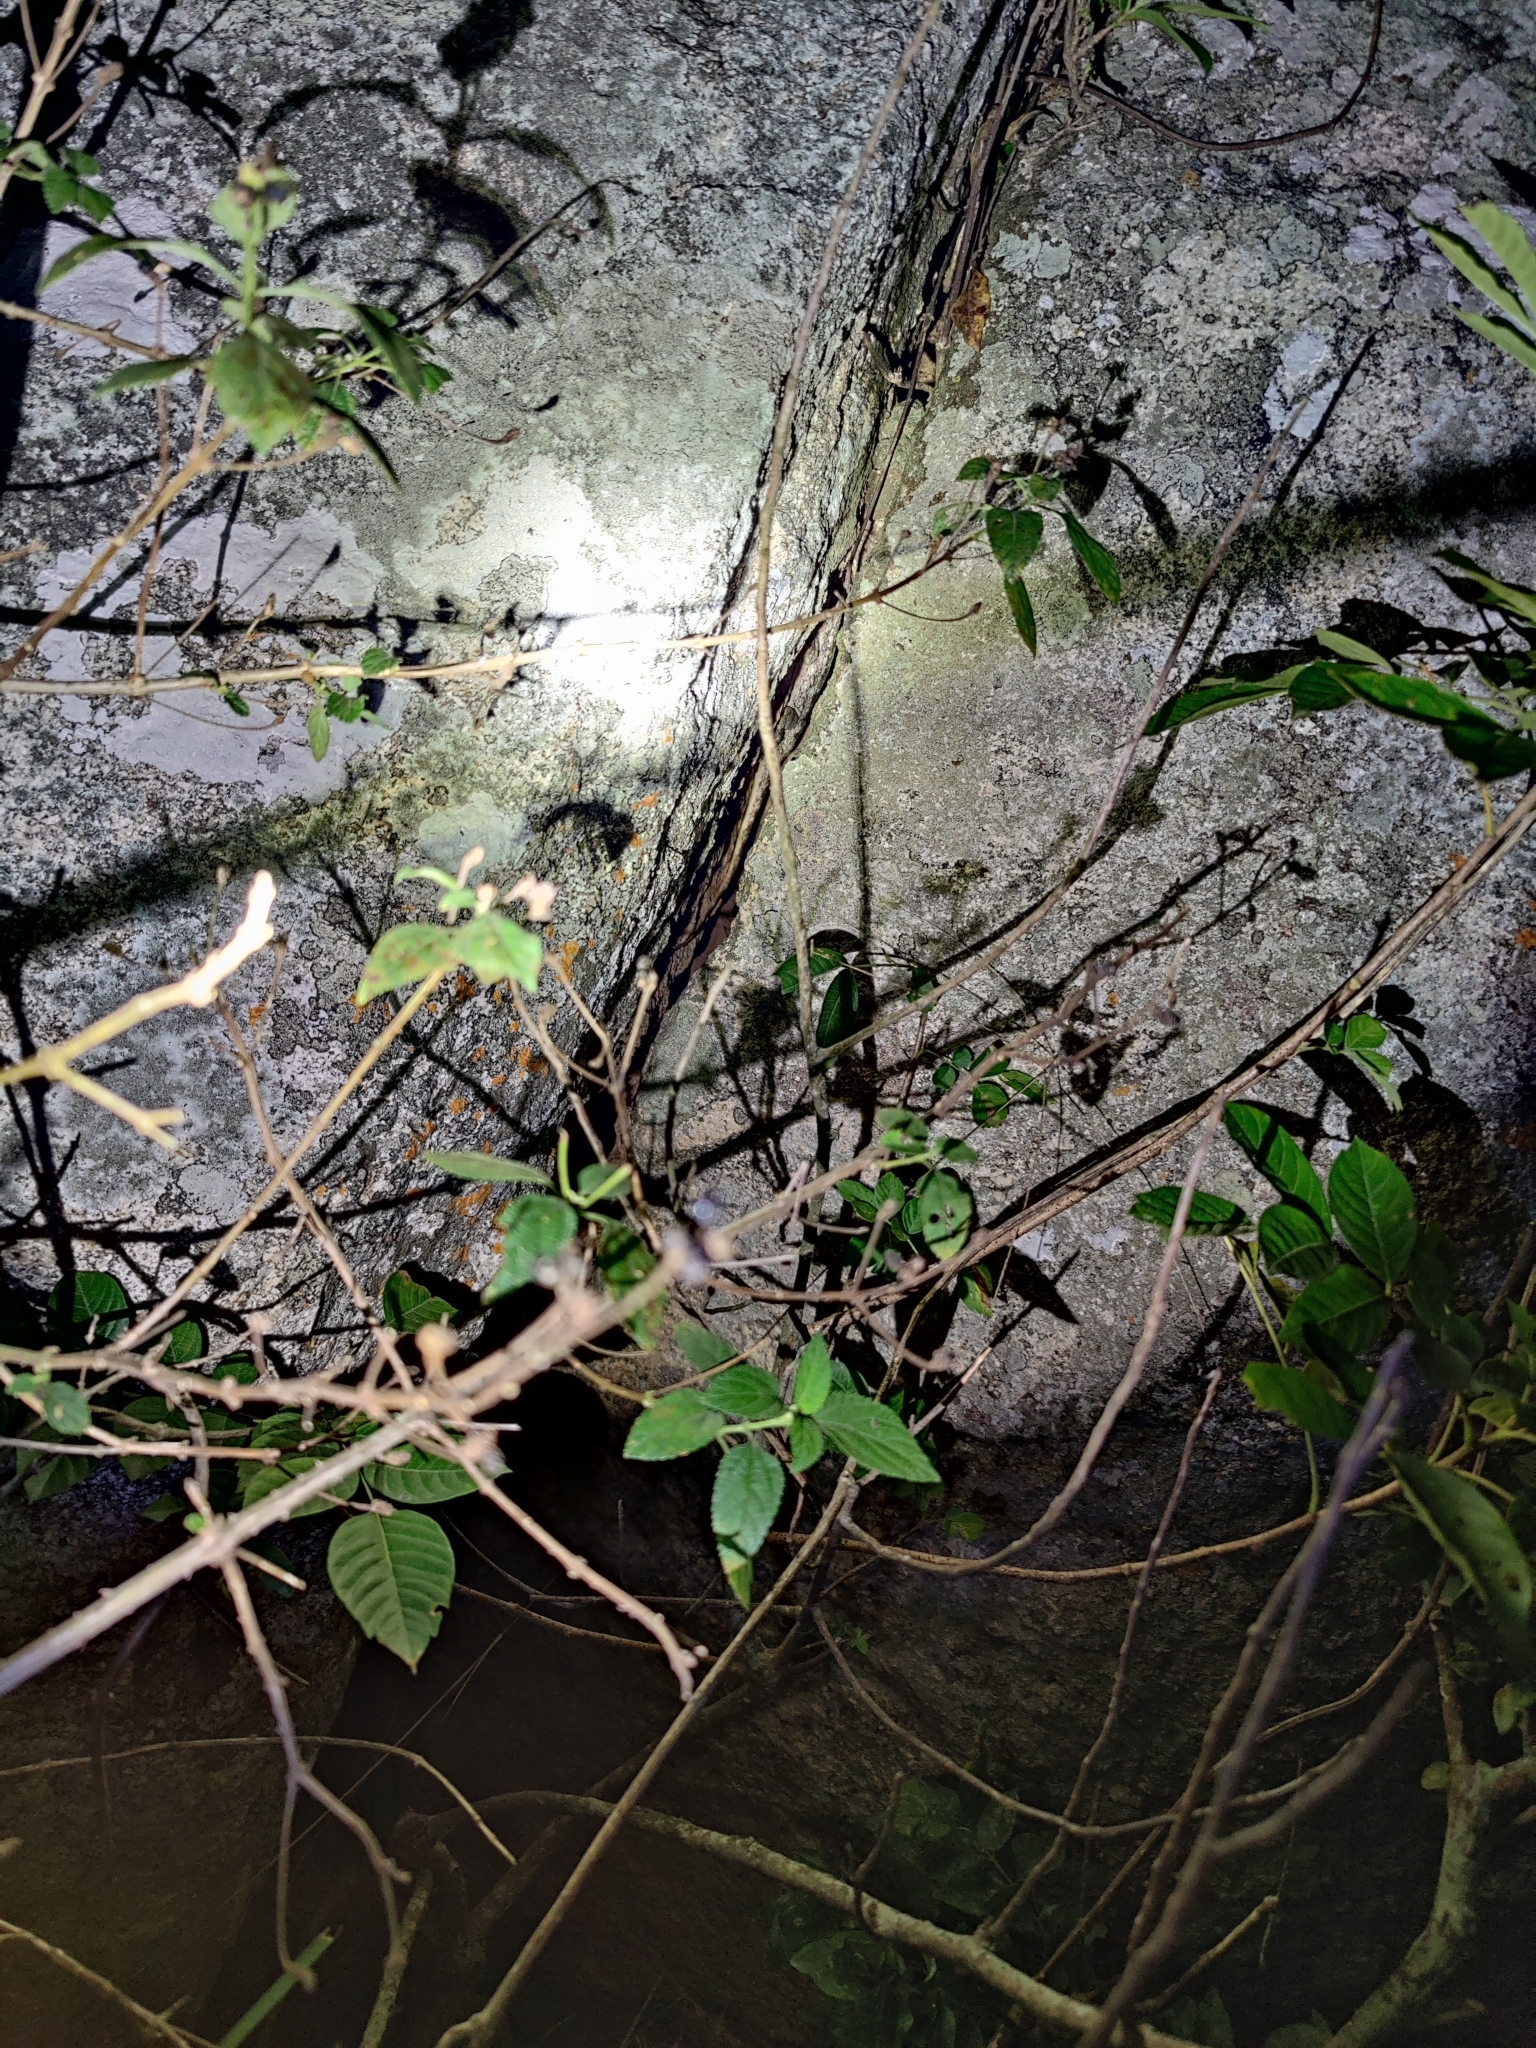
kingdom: Animalia
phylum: Chordata
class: Squamata
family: Agamidae
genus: Psammophilus
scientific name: Psammophilus dorsalis
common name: South indian rock agama
